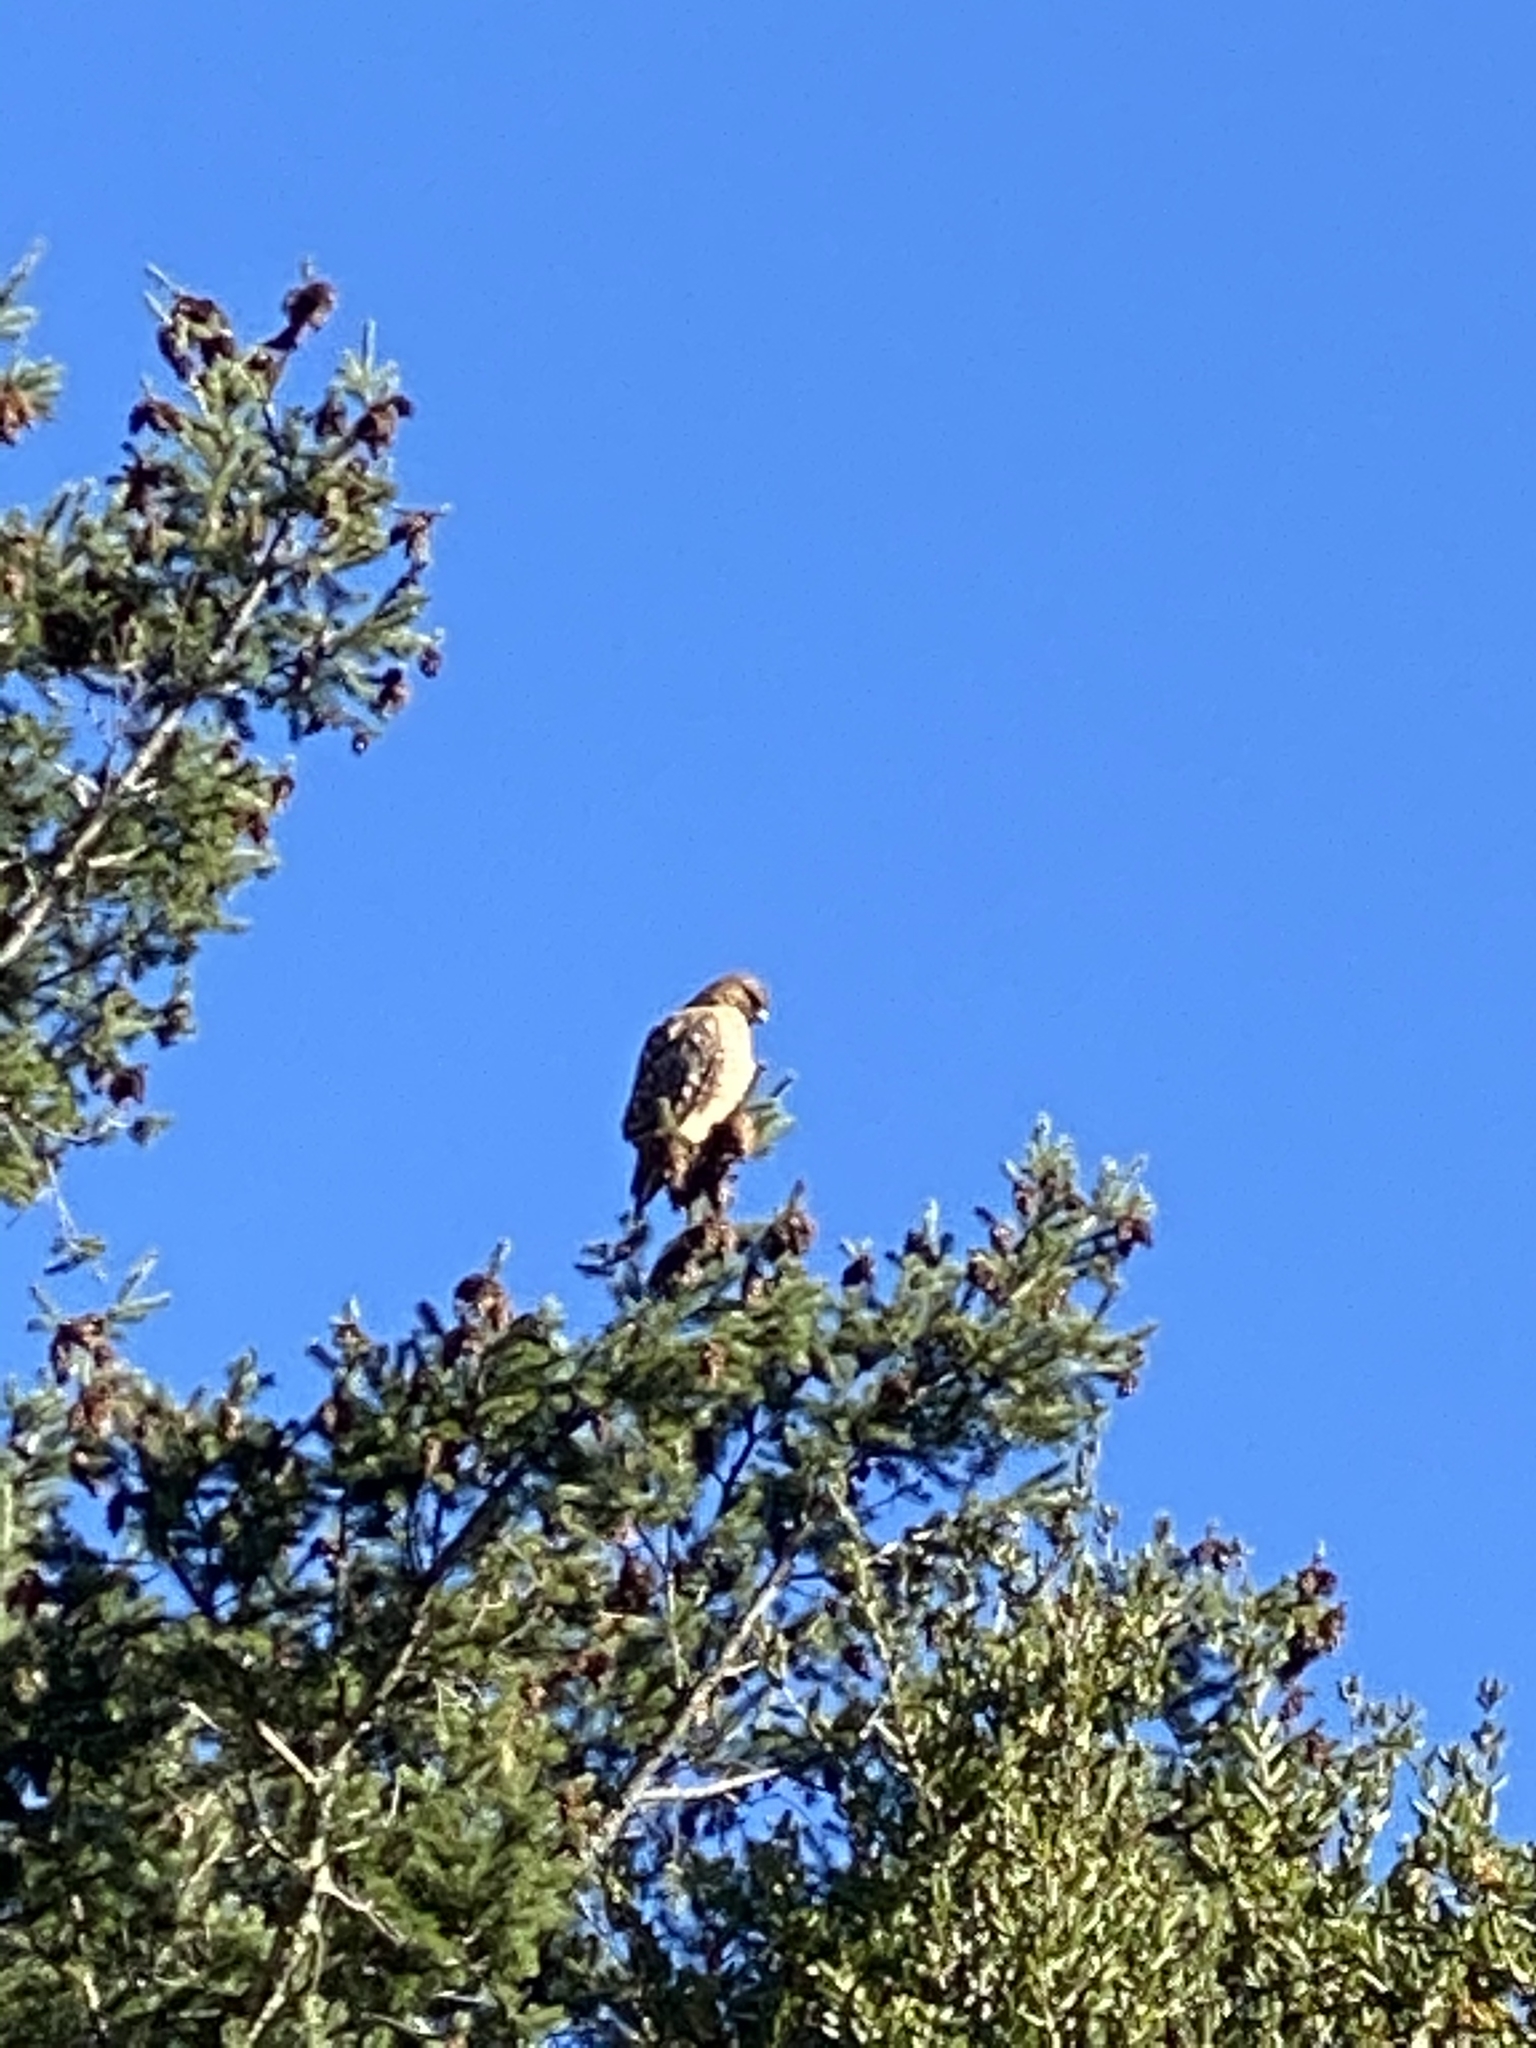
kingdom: Animalia
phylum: Chordata
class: Aves
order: Accipitriformes
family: Accipitridae
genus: Buteo
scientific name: Buteo jamaicensis
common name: Red-tailed hawk
